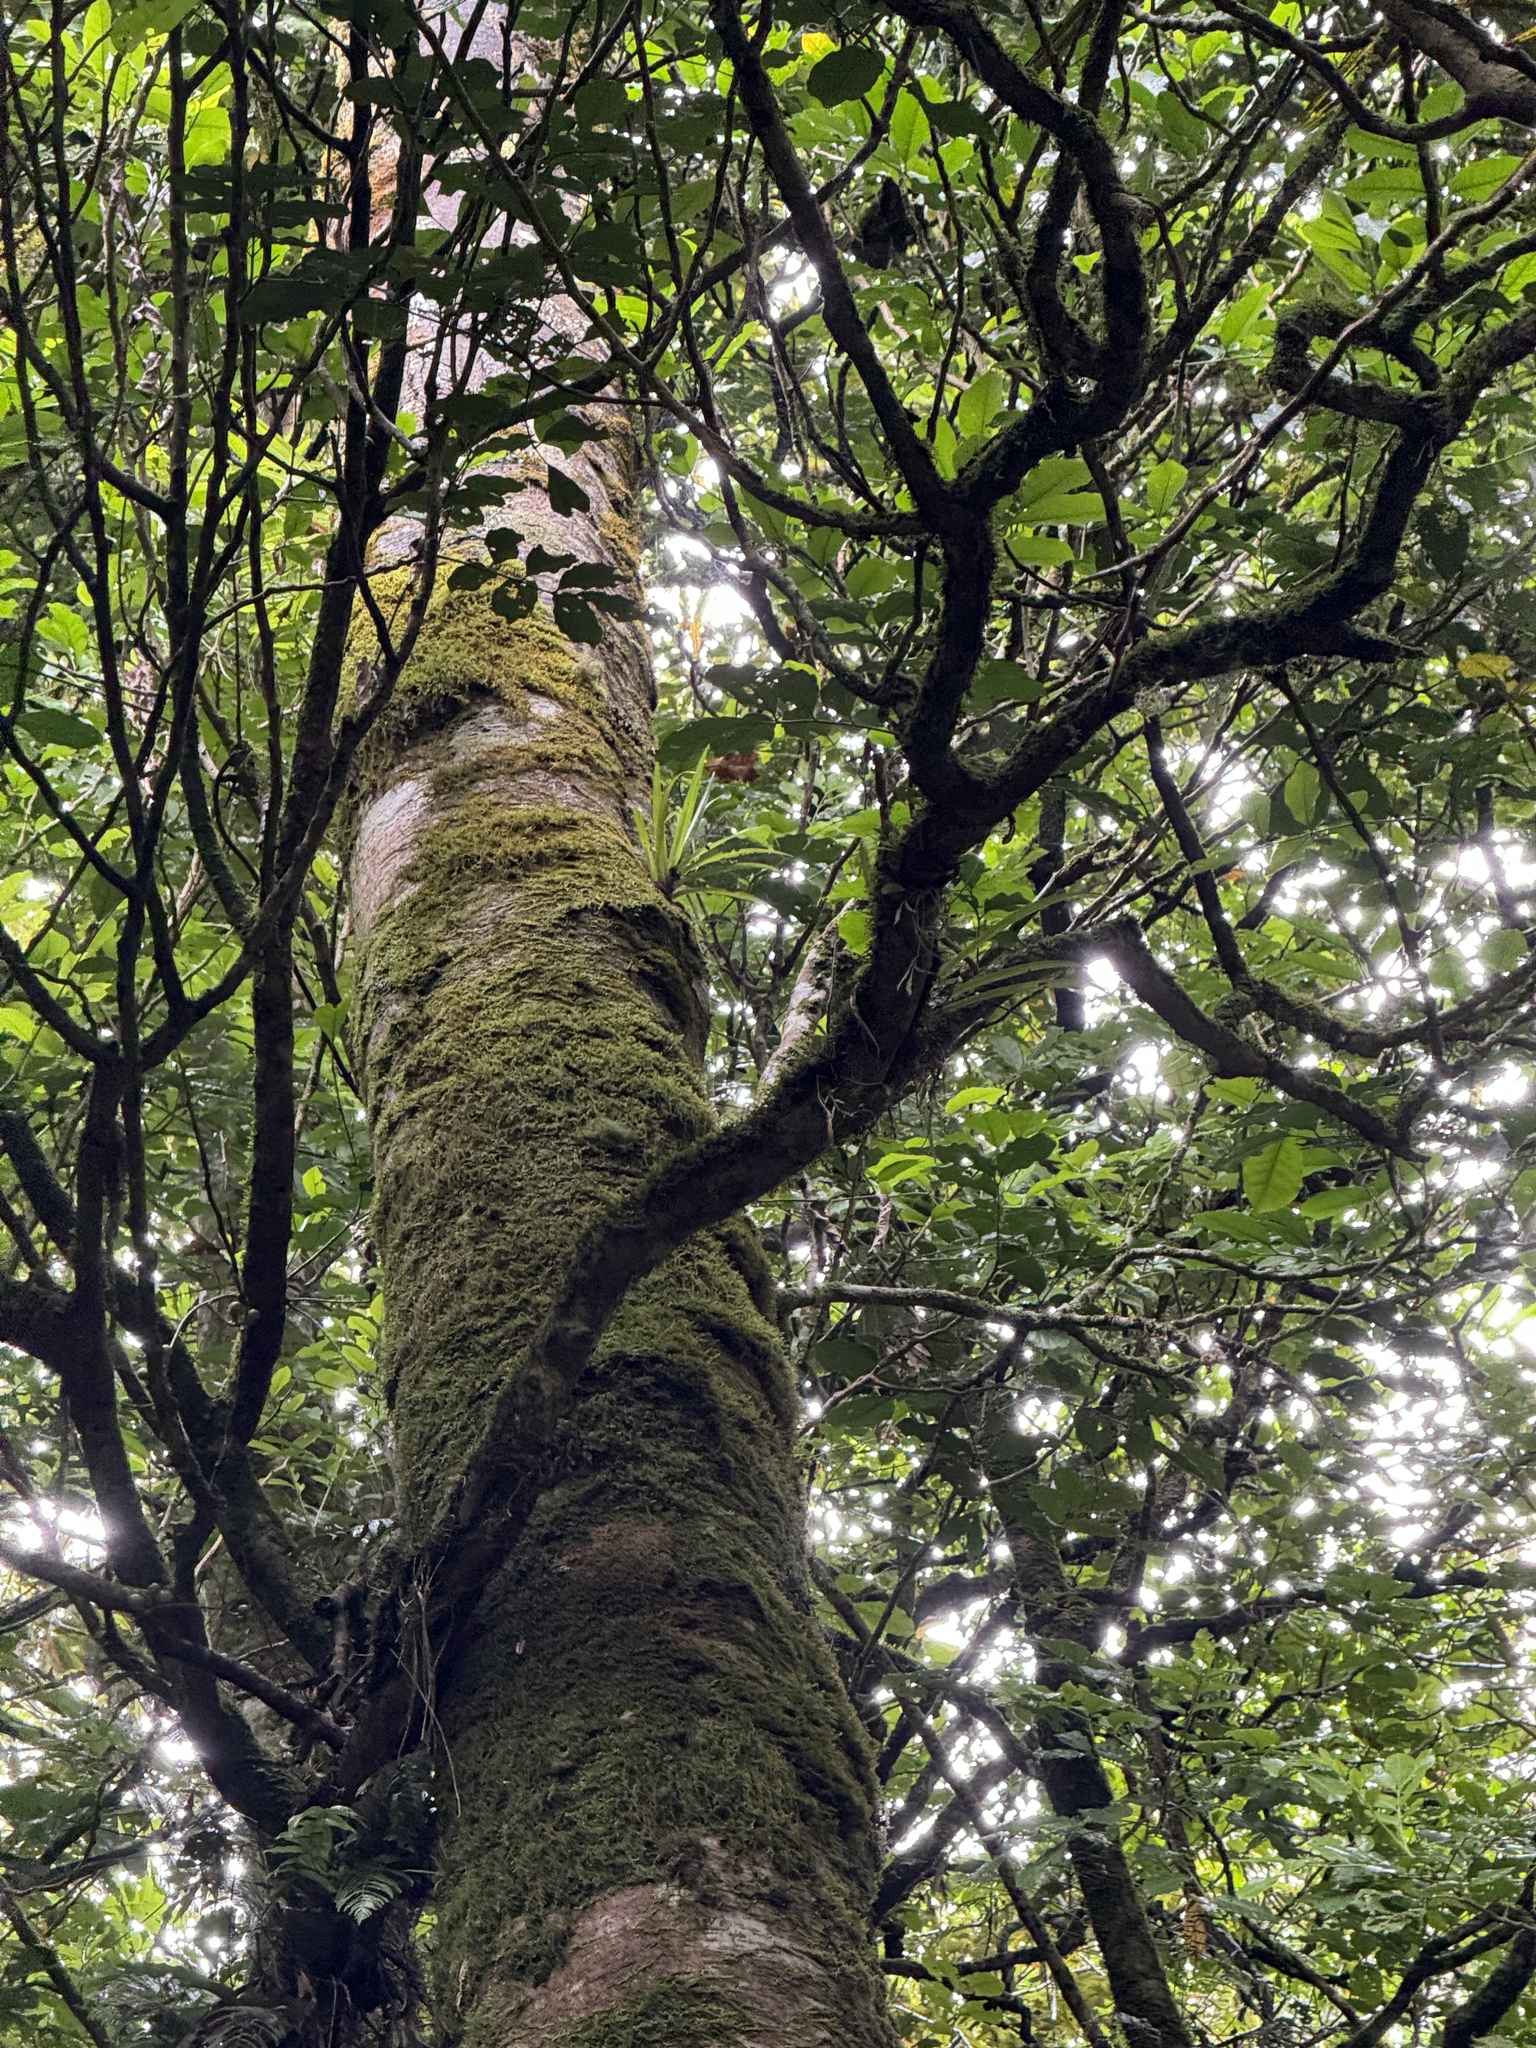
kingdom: Animalia
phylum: Chordata
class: Aves
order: Columbiformes
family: Columbidae
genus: Hemiphaga
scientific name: Hemiphaga novaeseelandiae
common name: New zealand pigeon
